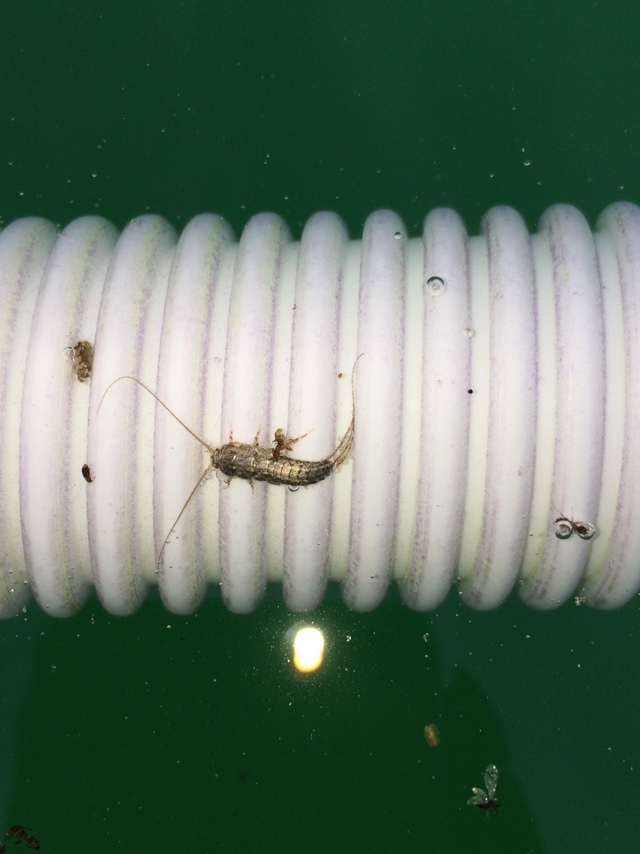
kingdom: Animalia
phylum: Arthropoda
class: Insecta
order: Zygentoma
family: Lepismatidae
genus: Ctenolepisma
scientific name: Ctenolepisma lineata
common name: Four-lined silverfish
